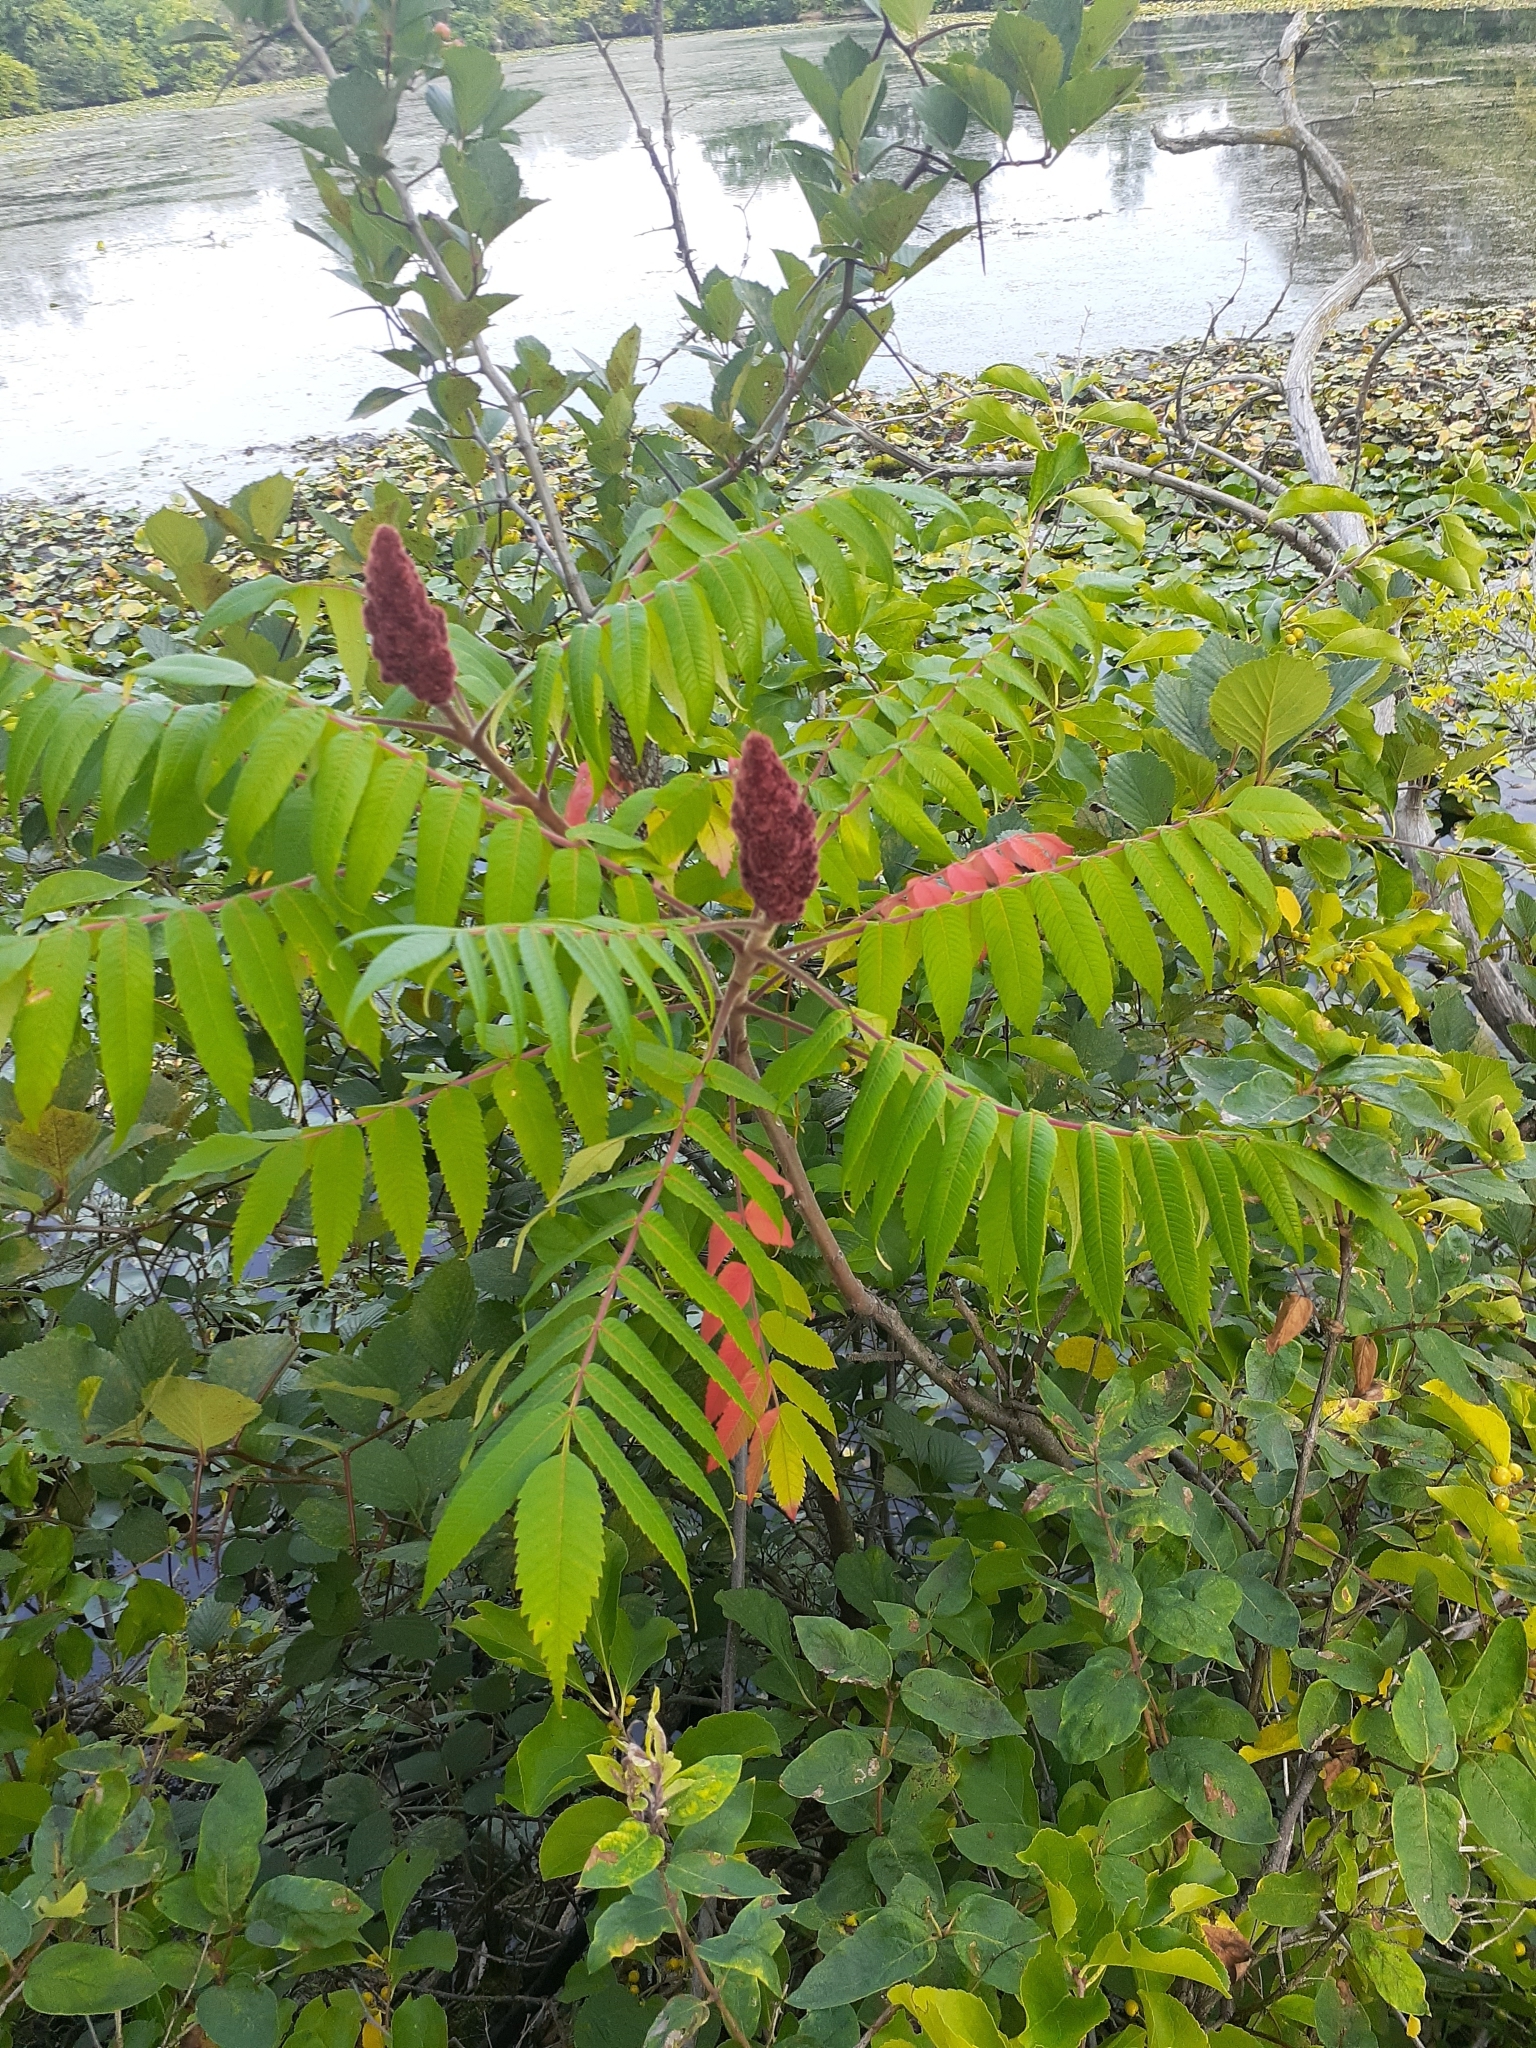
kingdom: Plantae
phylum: Tracheophyta
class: Magnoliopsida
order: Sapindales
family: Anacardiaceae
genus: Rhus
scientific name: Rhus typhina
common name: Staghorn sumac
